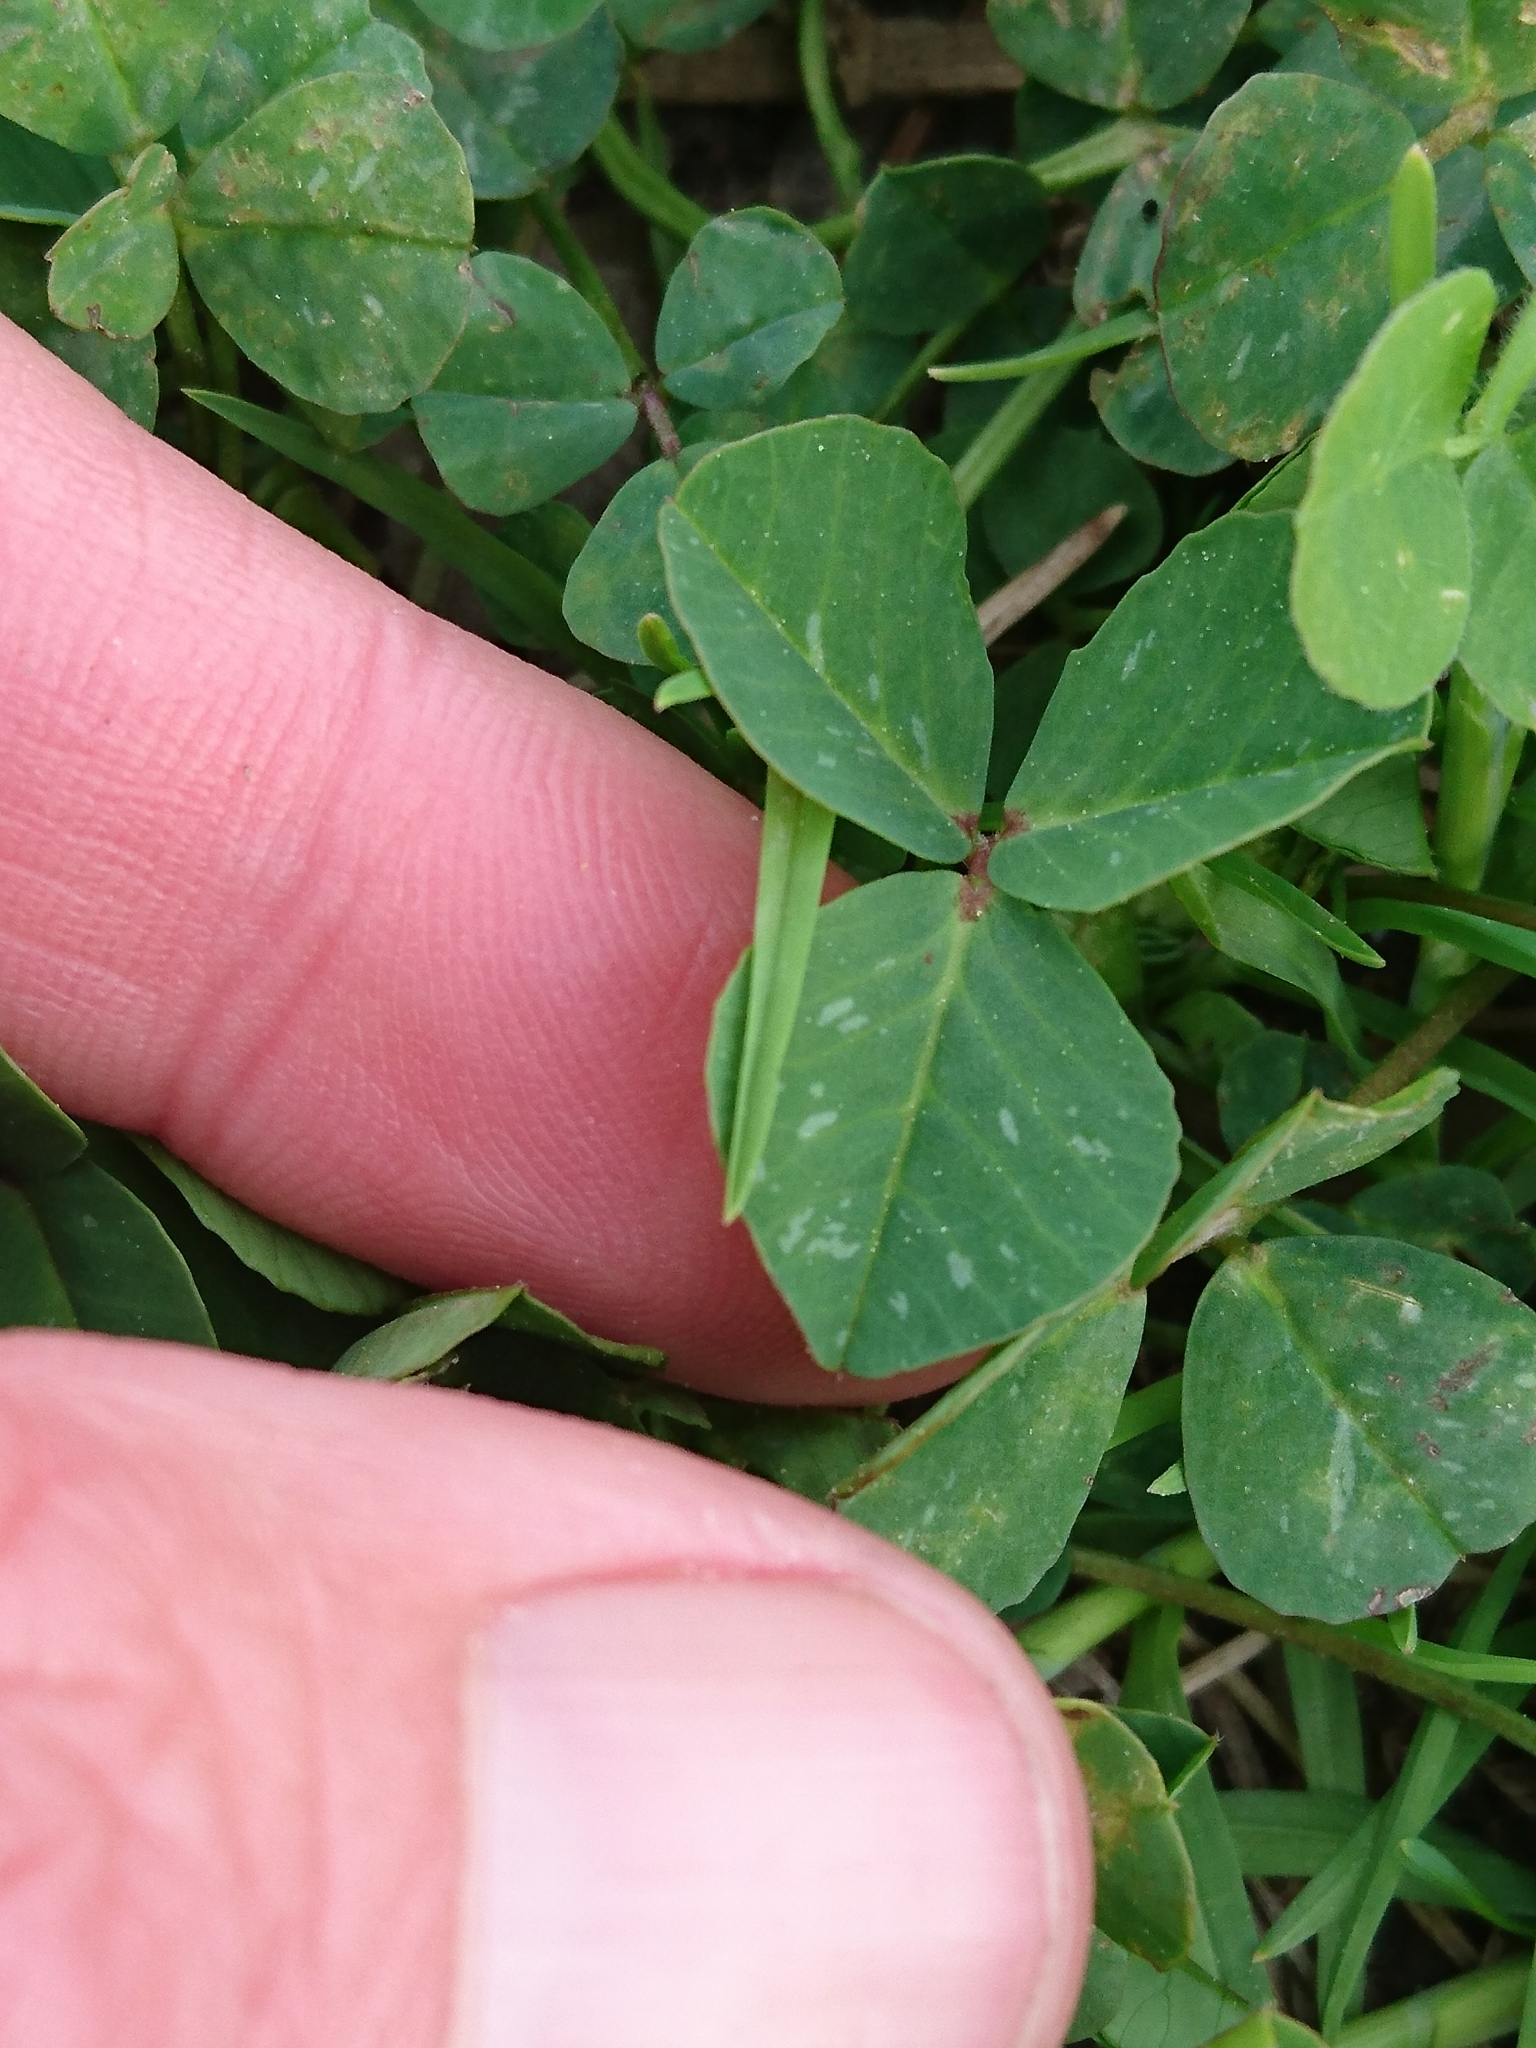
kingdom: Plantae
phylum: Tracheophyta
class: Magnoliopsida
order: Fabales
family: Fabaceae
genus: Medicago
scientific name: Medicago polymorpha
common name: Burclover
